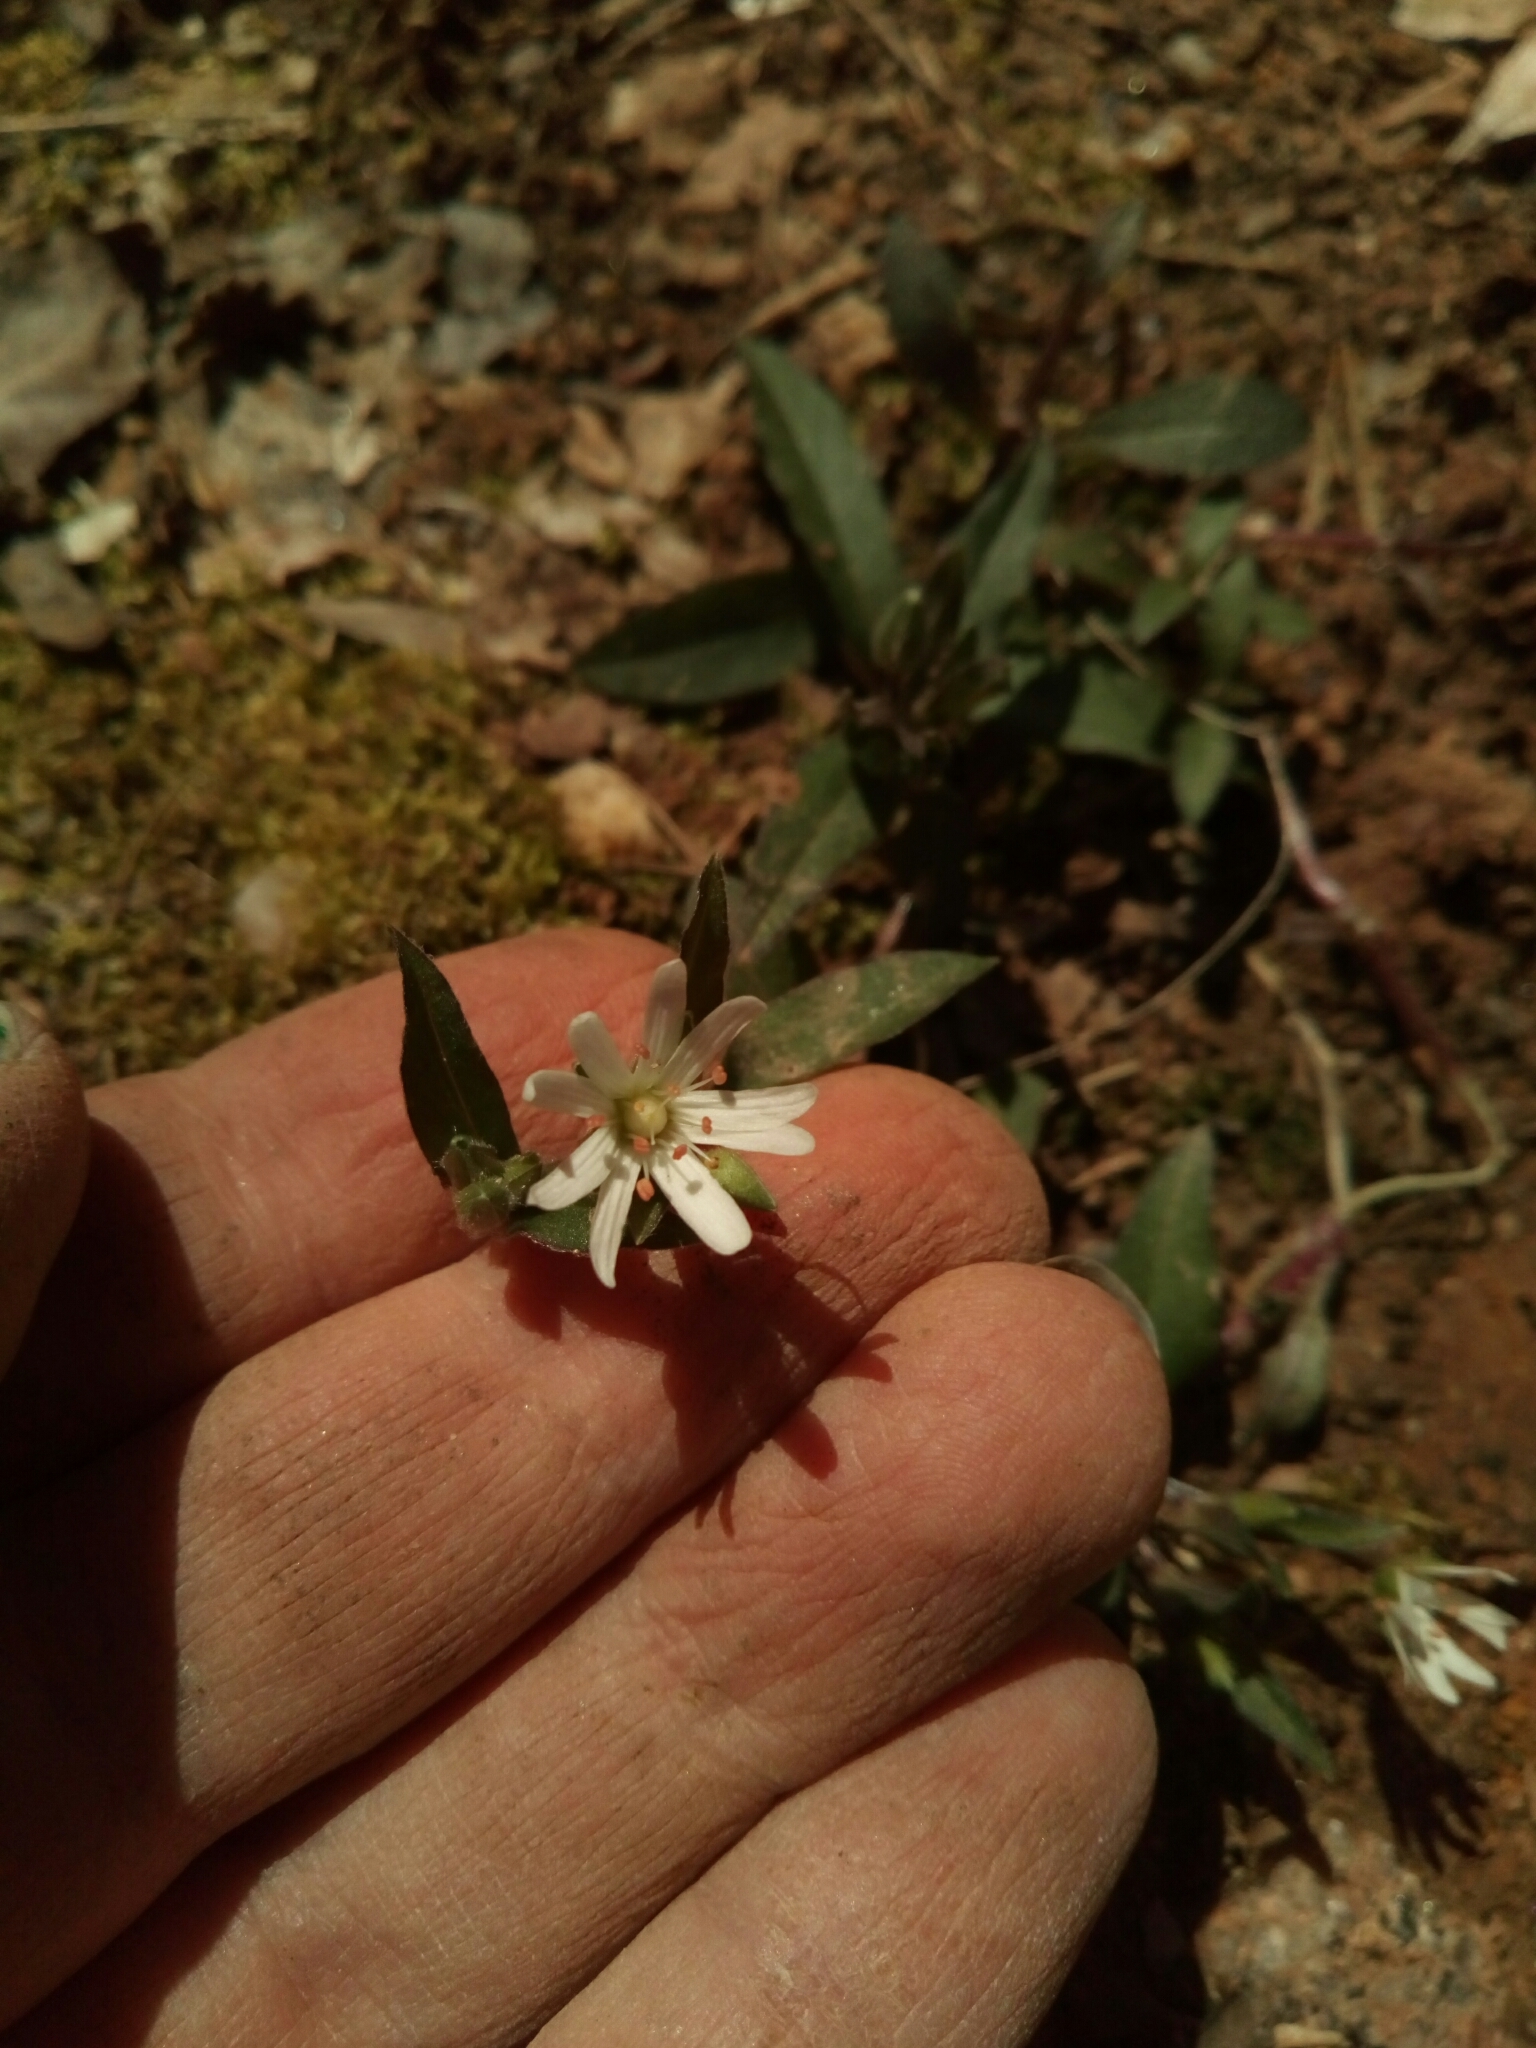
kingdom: Plantae
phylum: Tracheophyta
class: Magnoliopsida
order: Caryophyllales
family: Caryophyllaceae
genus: Stellaria
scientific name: Stellaria pubera
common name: Star chickweed
